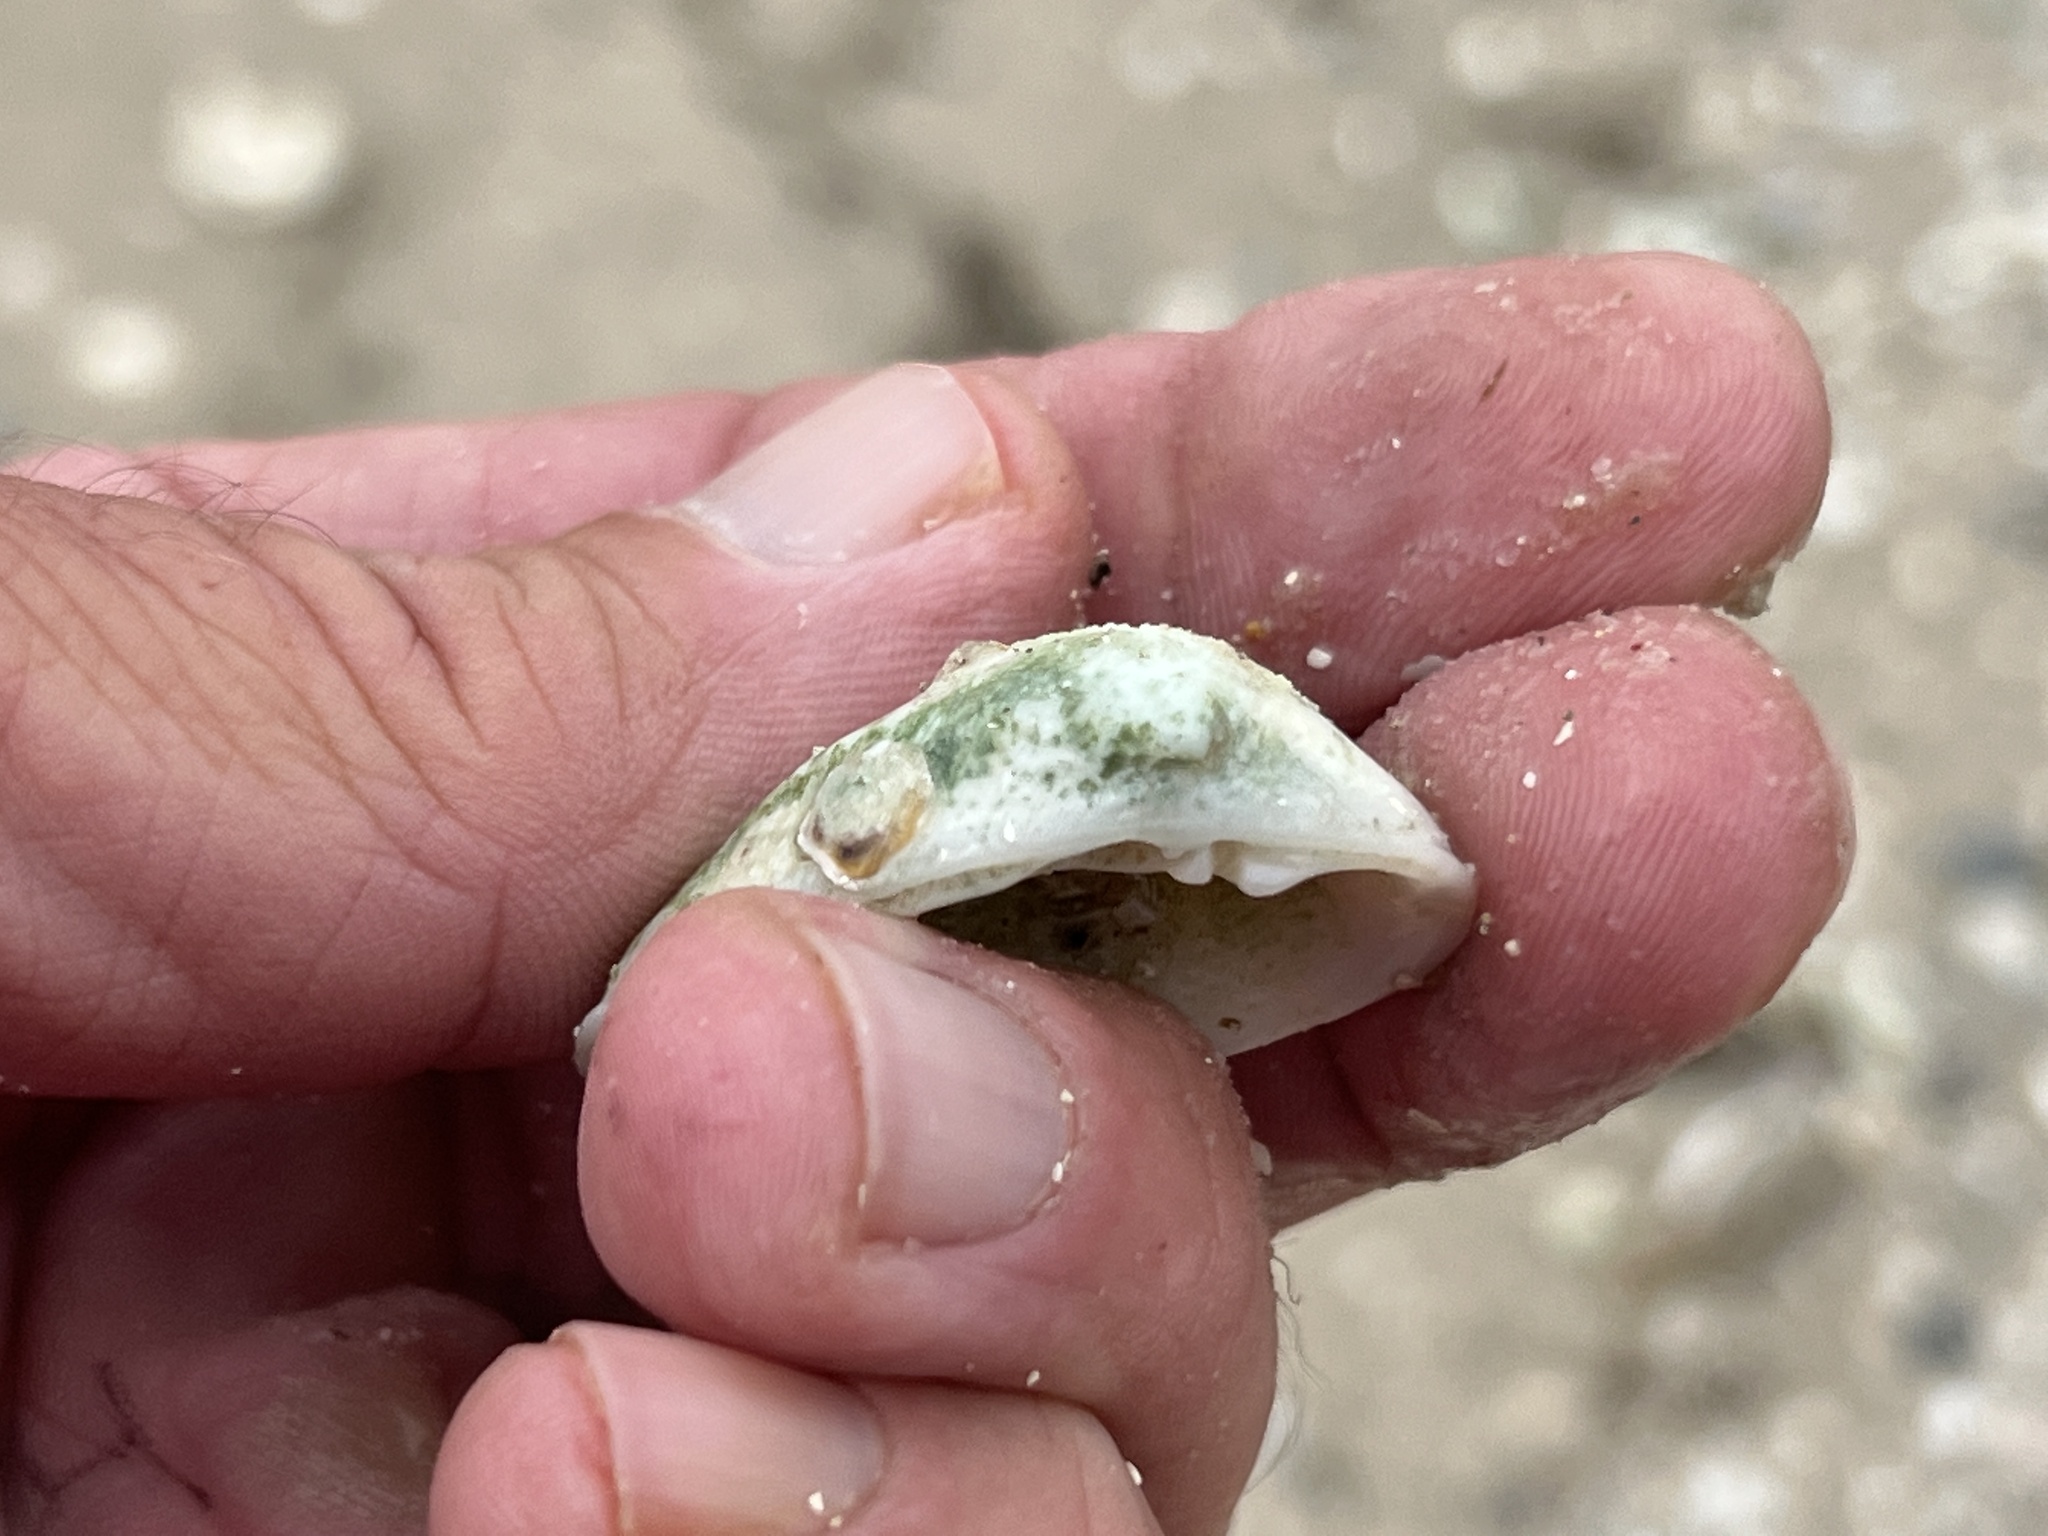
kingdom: Animalia
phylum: Mollusca
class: Bivalvia
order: Venerida
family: Mactridae
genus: Rangia
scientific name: Rangia cuneata
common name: Atlantic rangia
